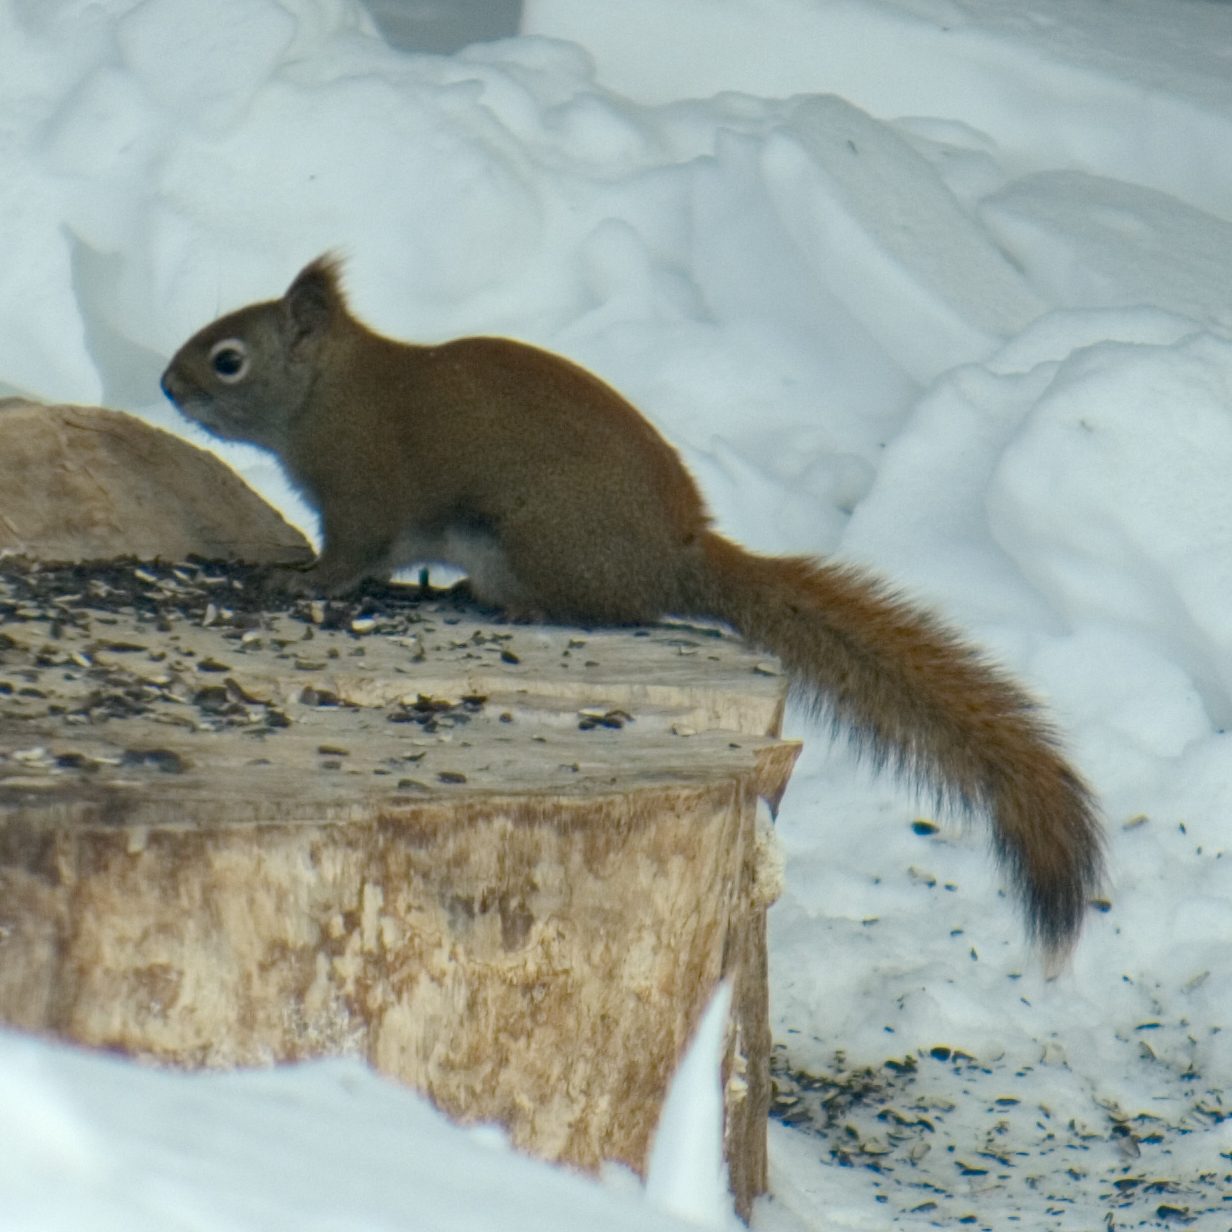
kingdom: Animalia
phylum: Chordata
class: Mammalia
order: Rodentia
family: Sciuridae
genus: Tamiasciurus
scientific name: Tamiasciurus hudsonicus
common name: Red squirrel
